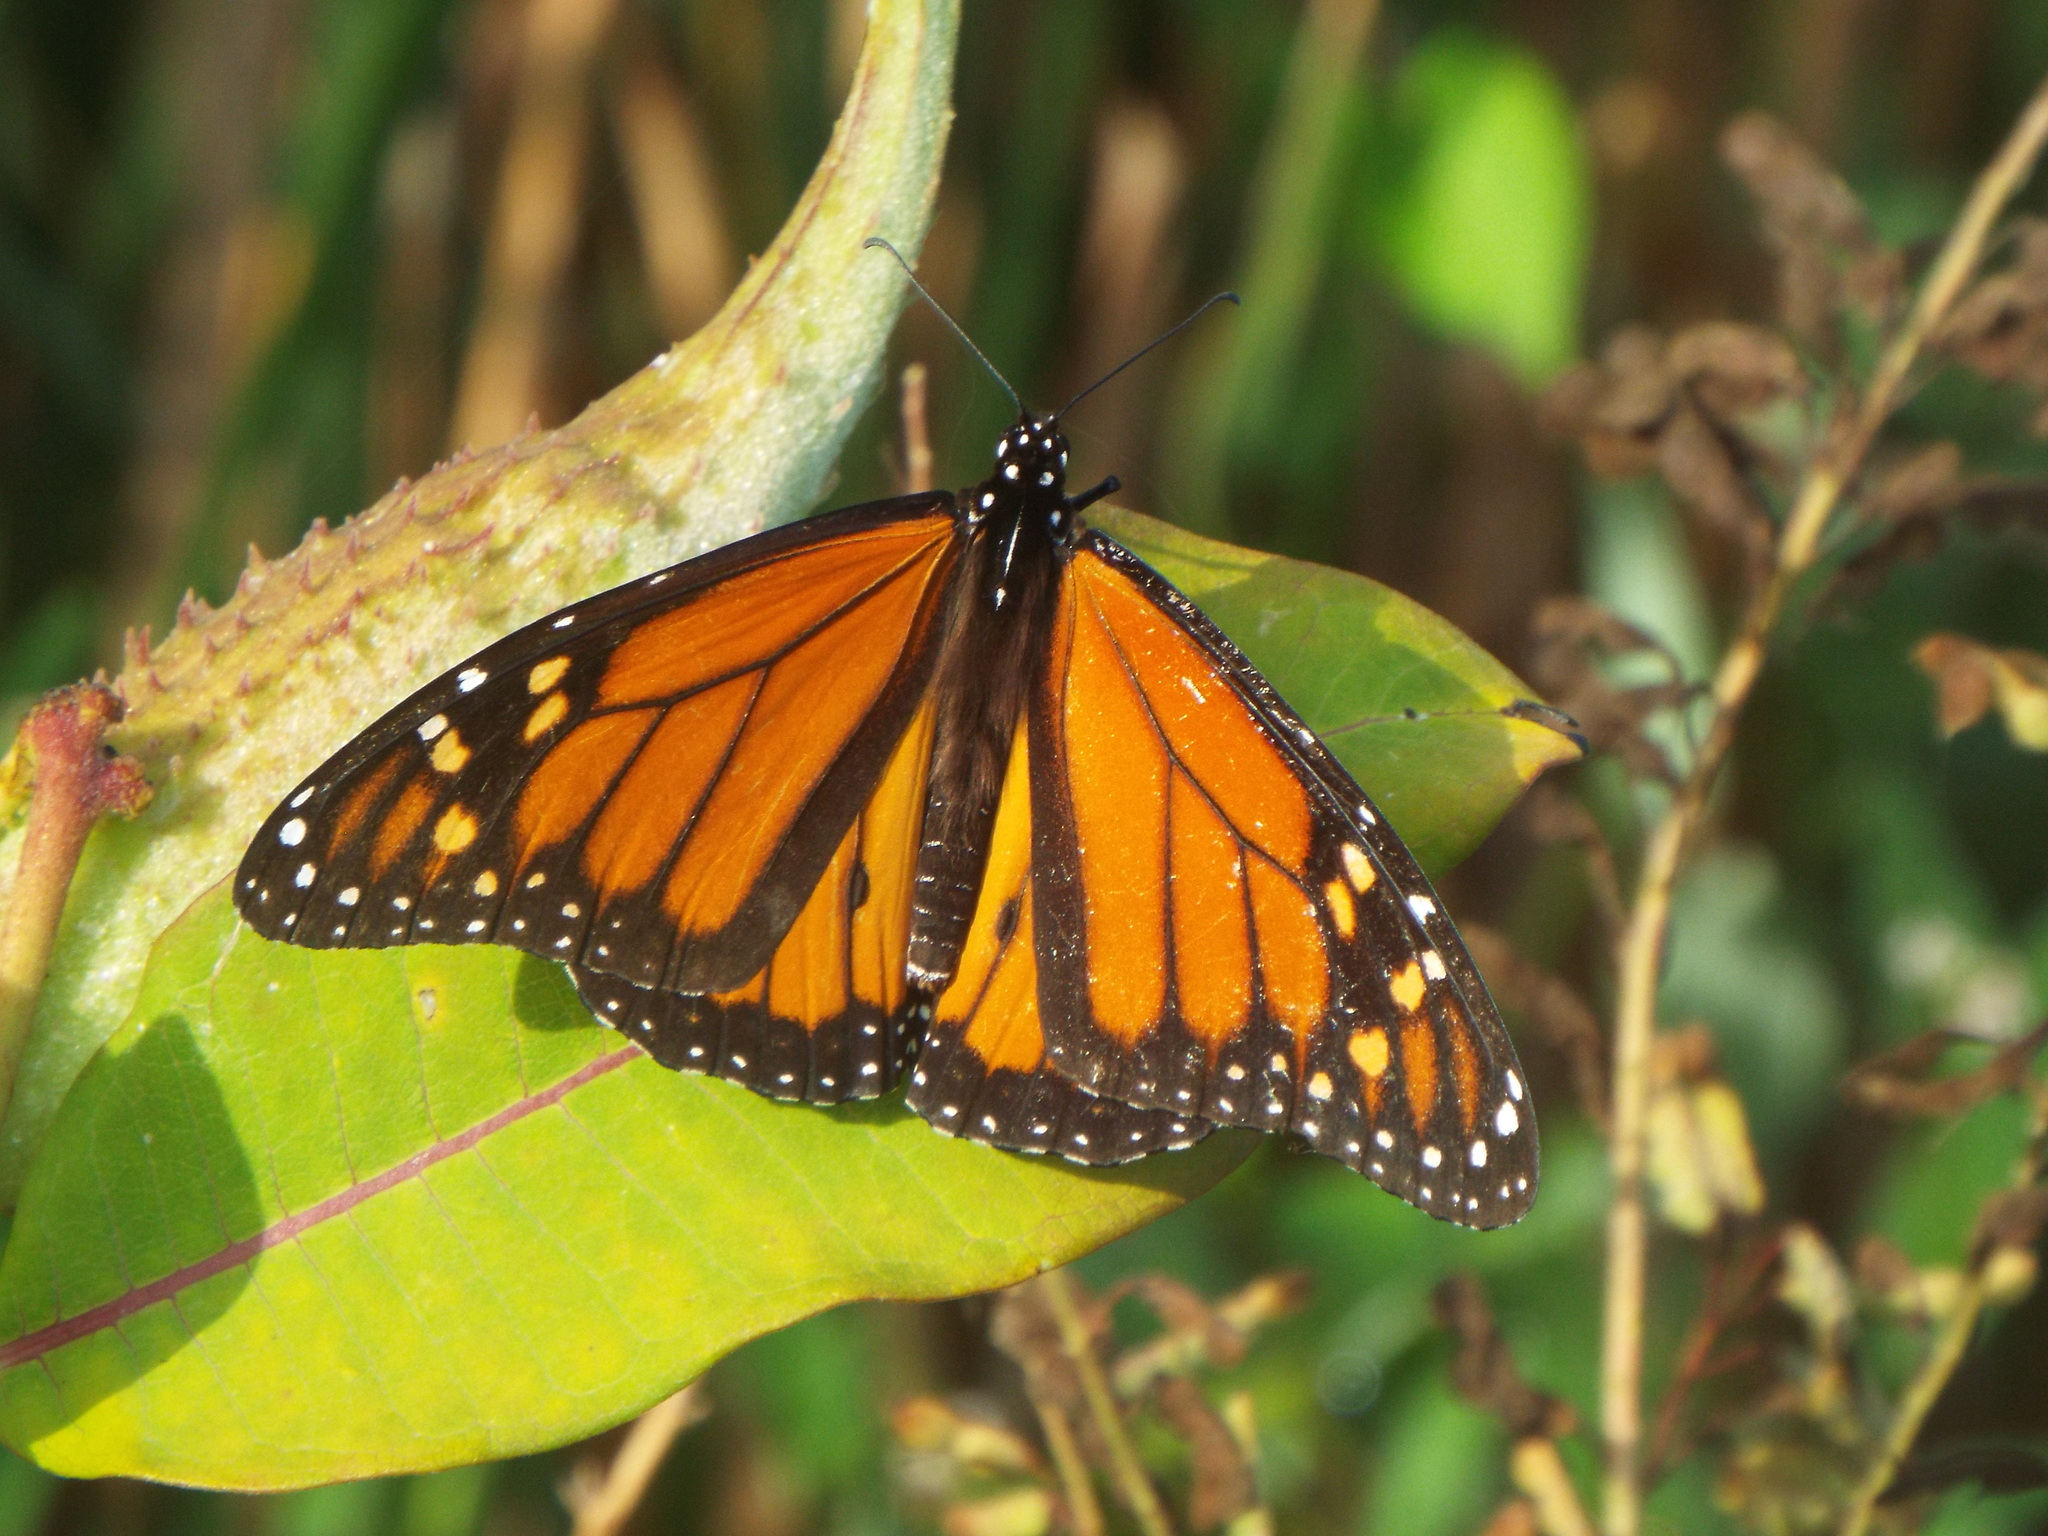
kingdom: Animalia
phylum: Arthropoda
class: Insecta
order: Lepidoptera
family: Nymphalidae
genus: Danaus
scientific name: Danaus plexippus
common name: Monarch
